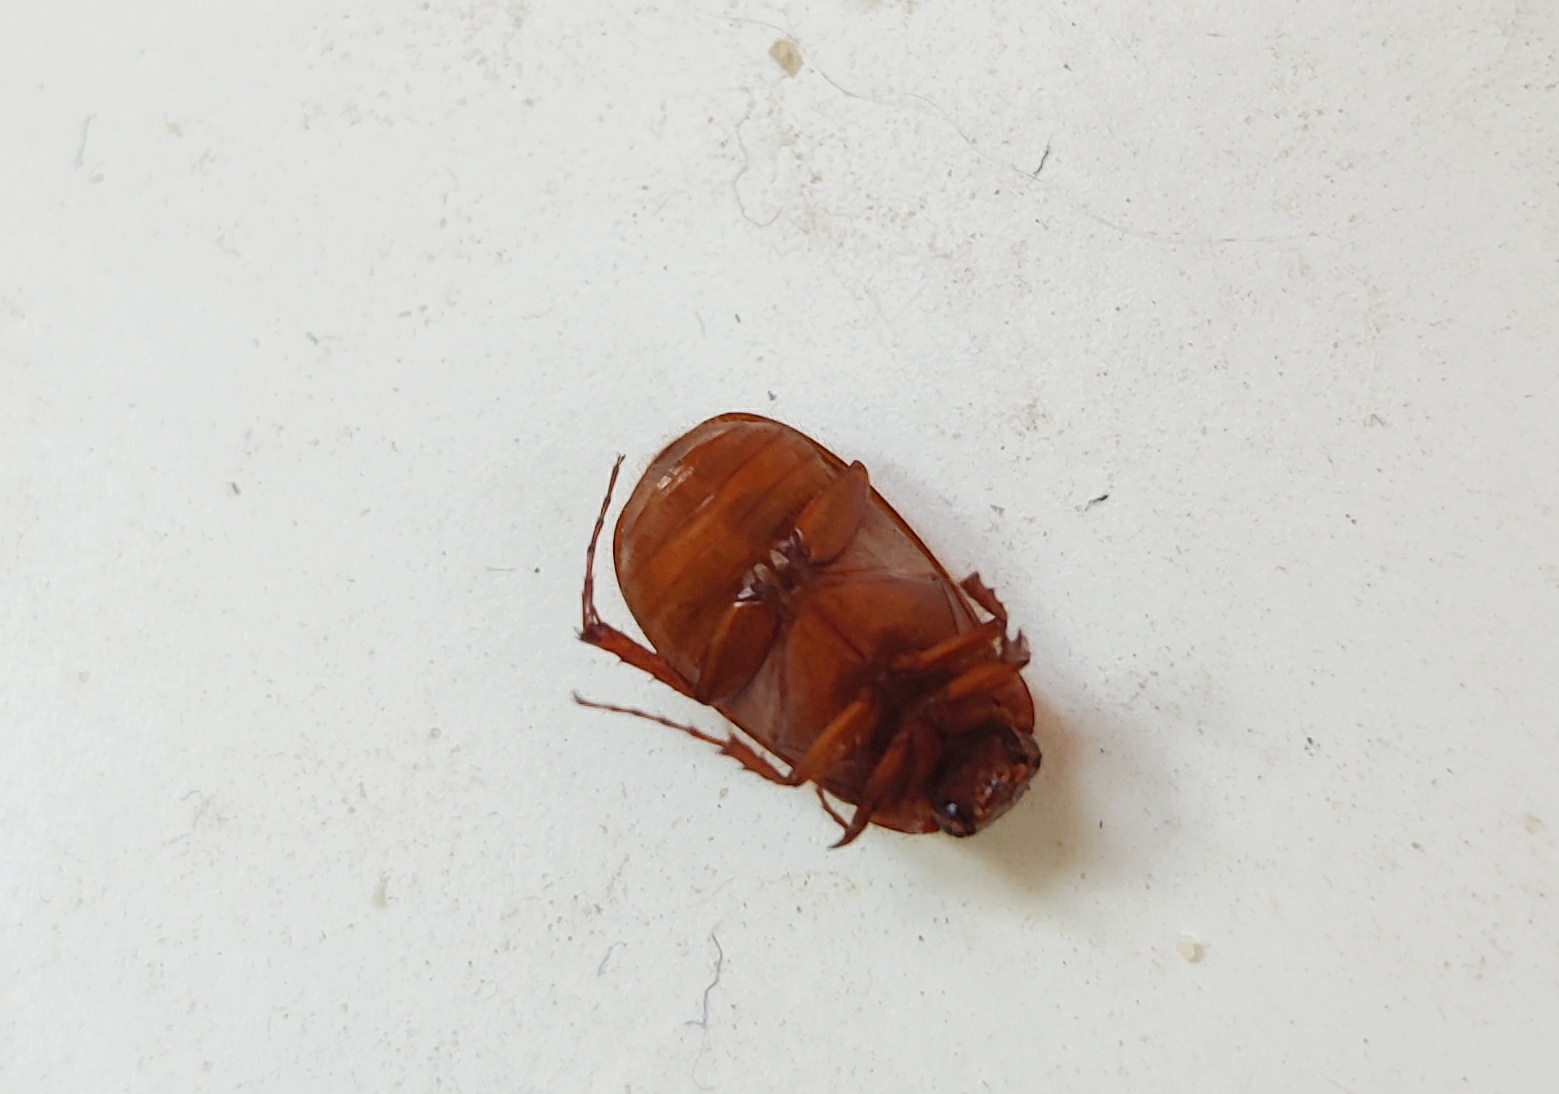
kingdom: Animalia
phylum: Arthropoda
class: Insecta
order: Coleoptera
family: Scarabaeidae
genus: Serica
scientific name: Serica brunnea
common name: Brown chafer
